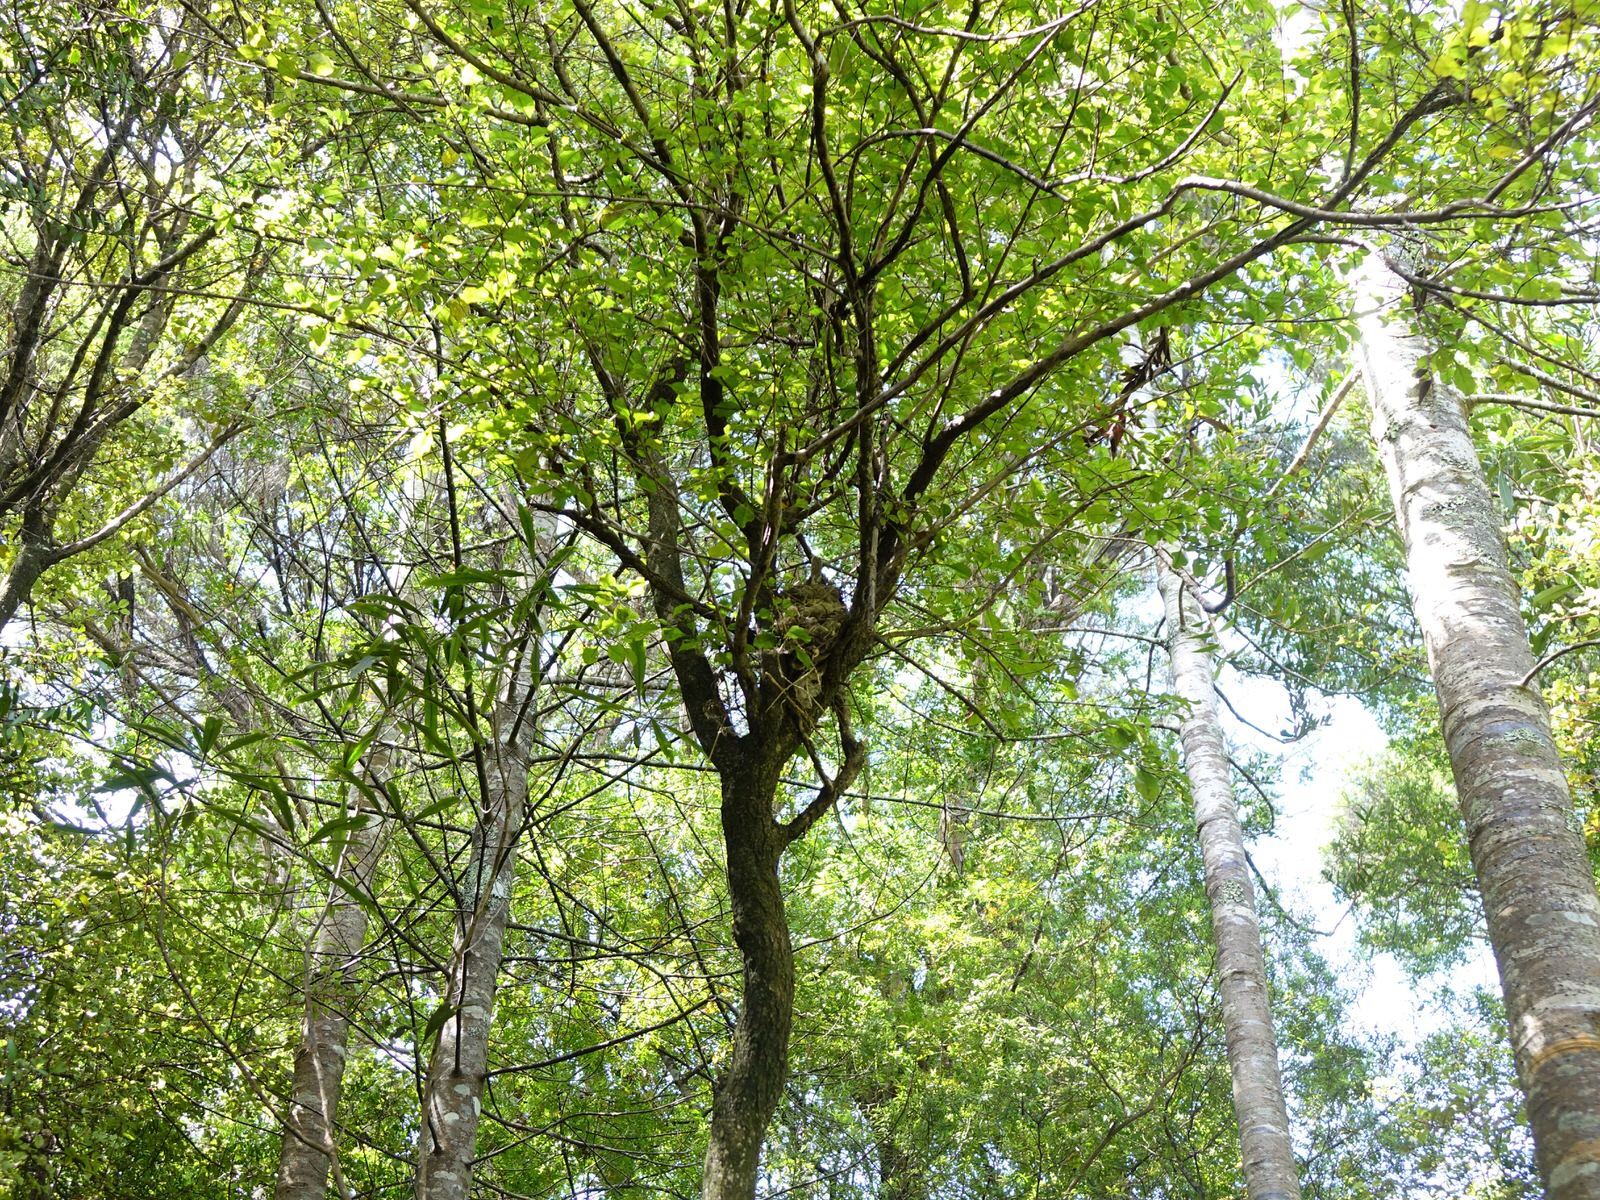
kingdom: Animalia
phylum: Chordata
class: Aves
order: Passeriformes
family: Turdidae
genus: Turdus
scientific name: Turdus merula
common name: Common blackbird
